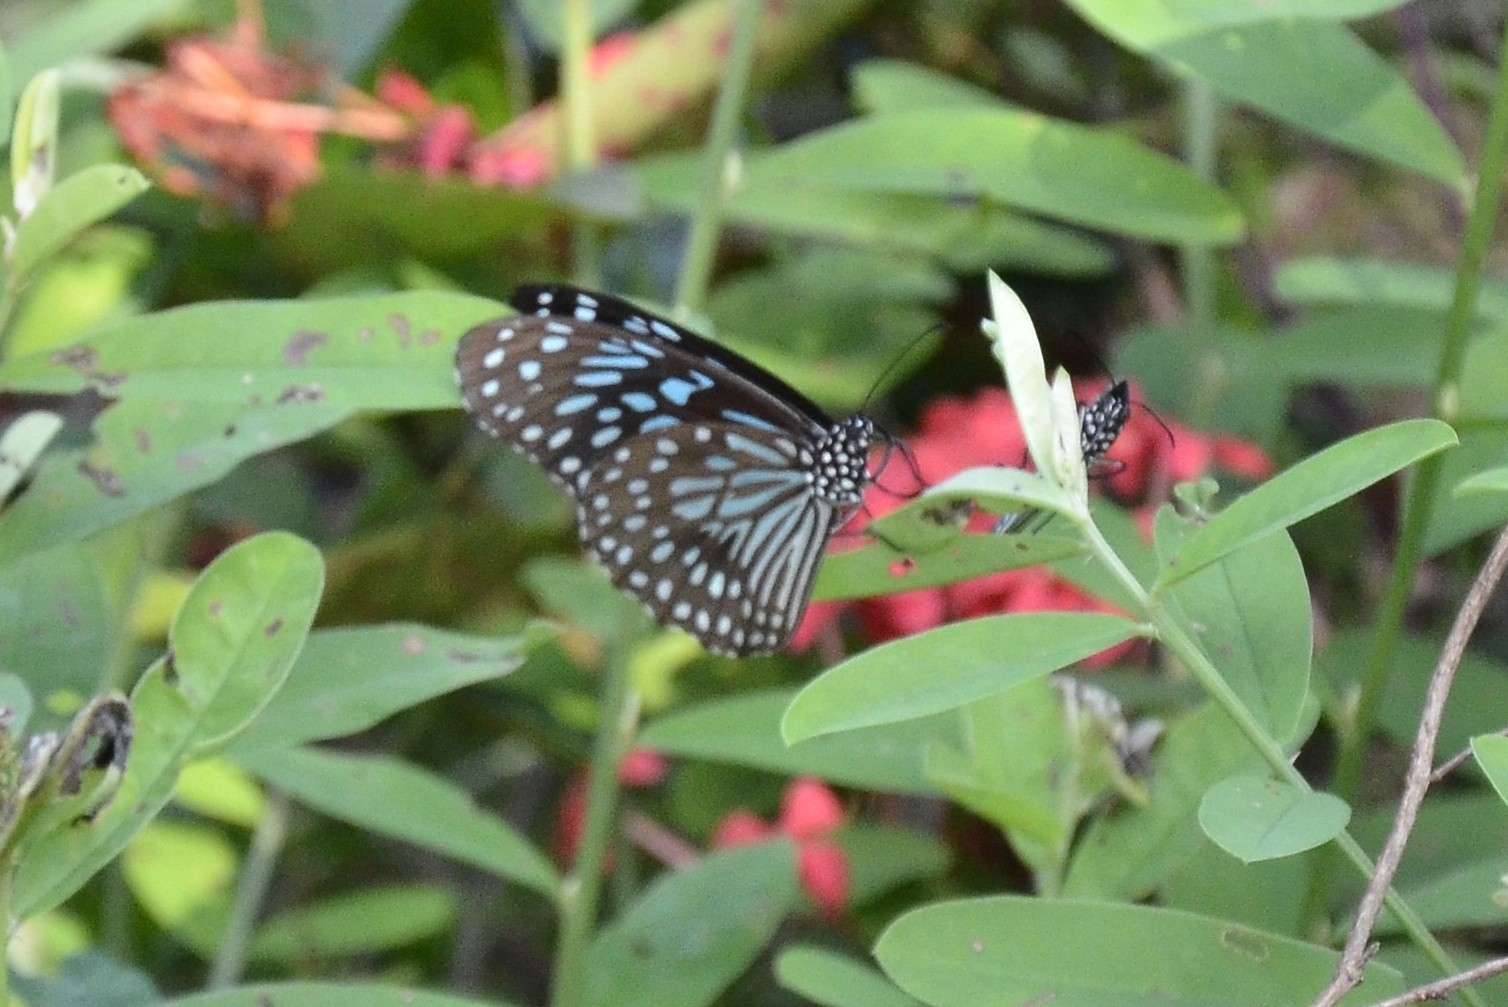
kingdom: Animalia
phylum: Arthropoda
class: Insecta
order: Lepidoptera
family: Nymphalidae
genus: Tirumala
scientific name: Tirumala septentrionis
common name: Dark blue tiger butterfly
